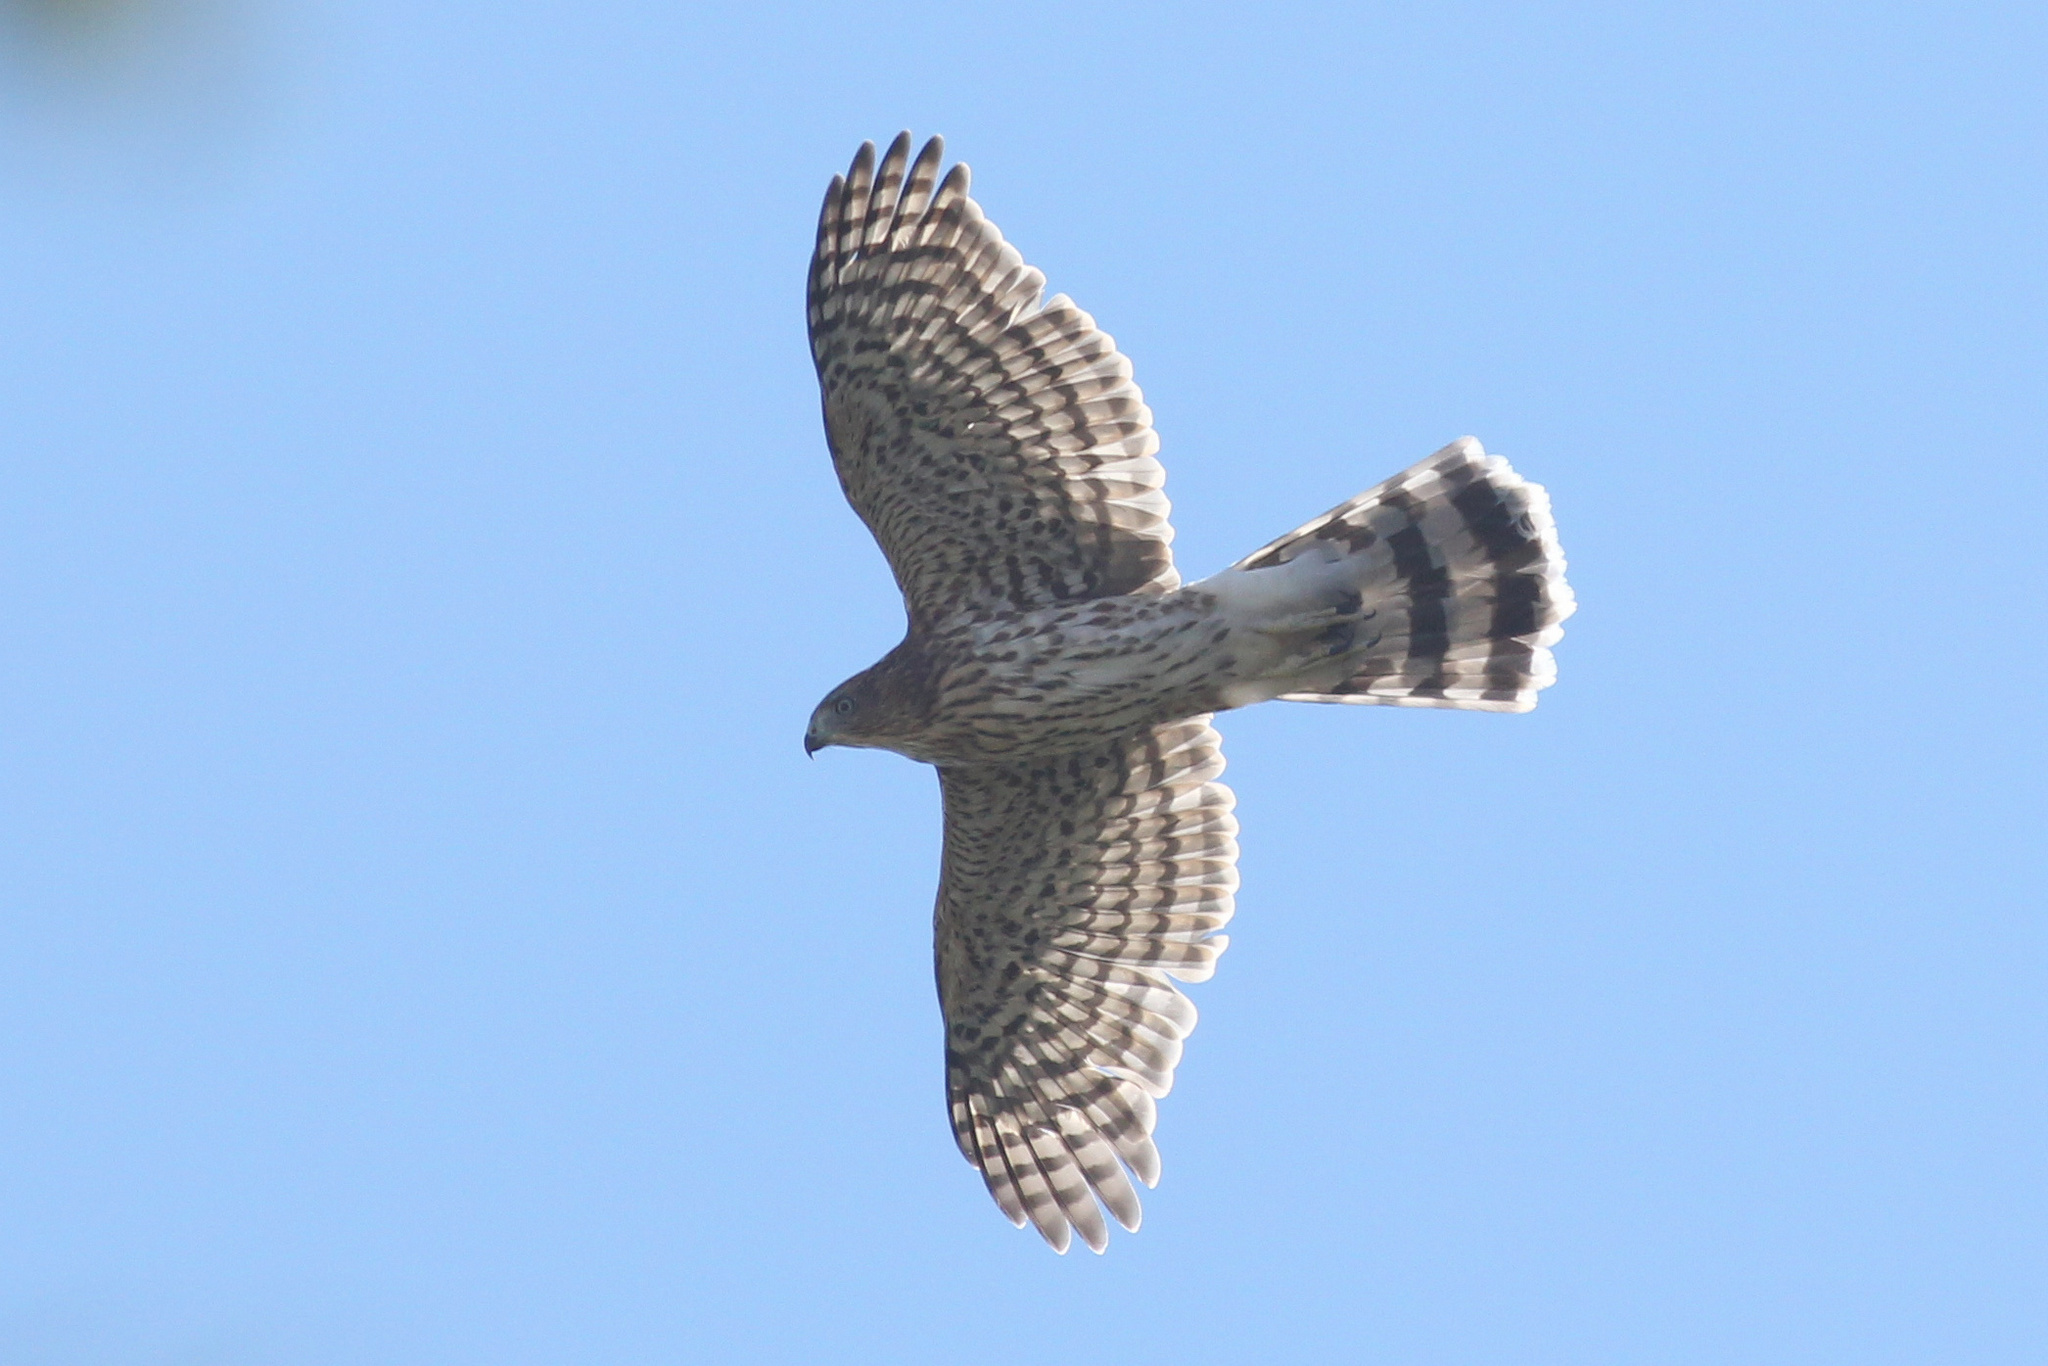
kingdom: Animalia
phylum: Chordata
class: Aves
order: Accipitriformes
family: Accipitridae
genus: Accipiter
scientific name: Accipiter cooperii
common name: Cooper's hawk
